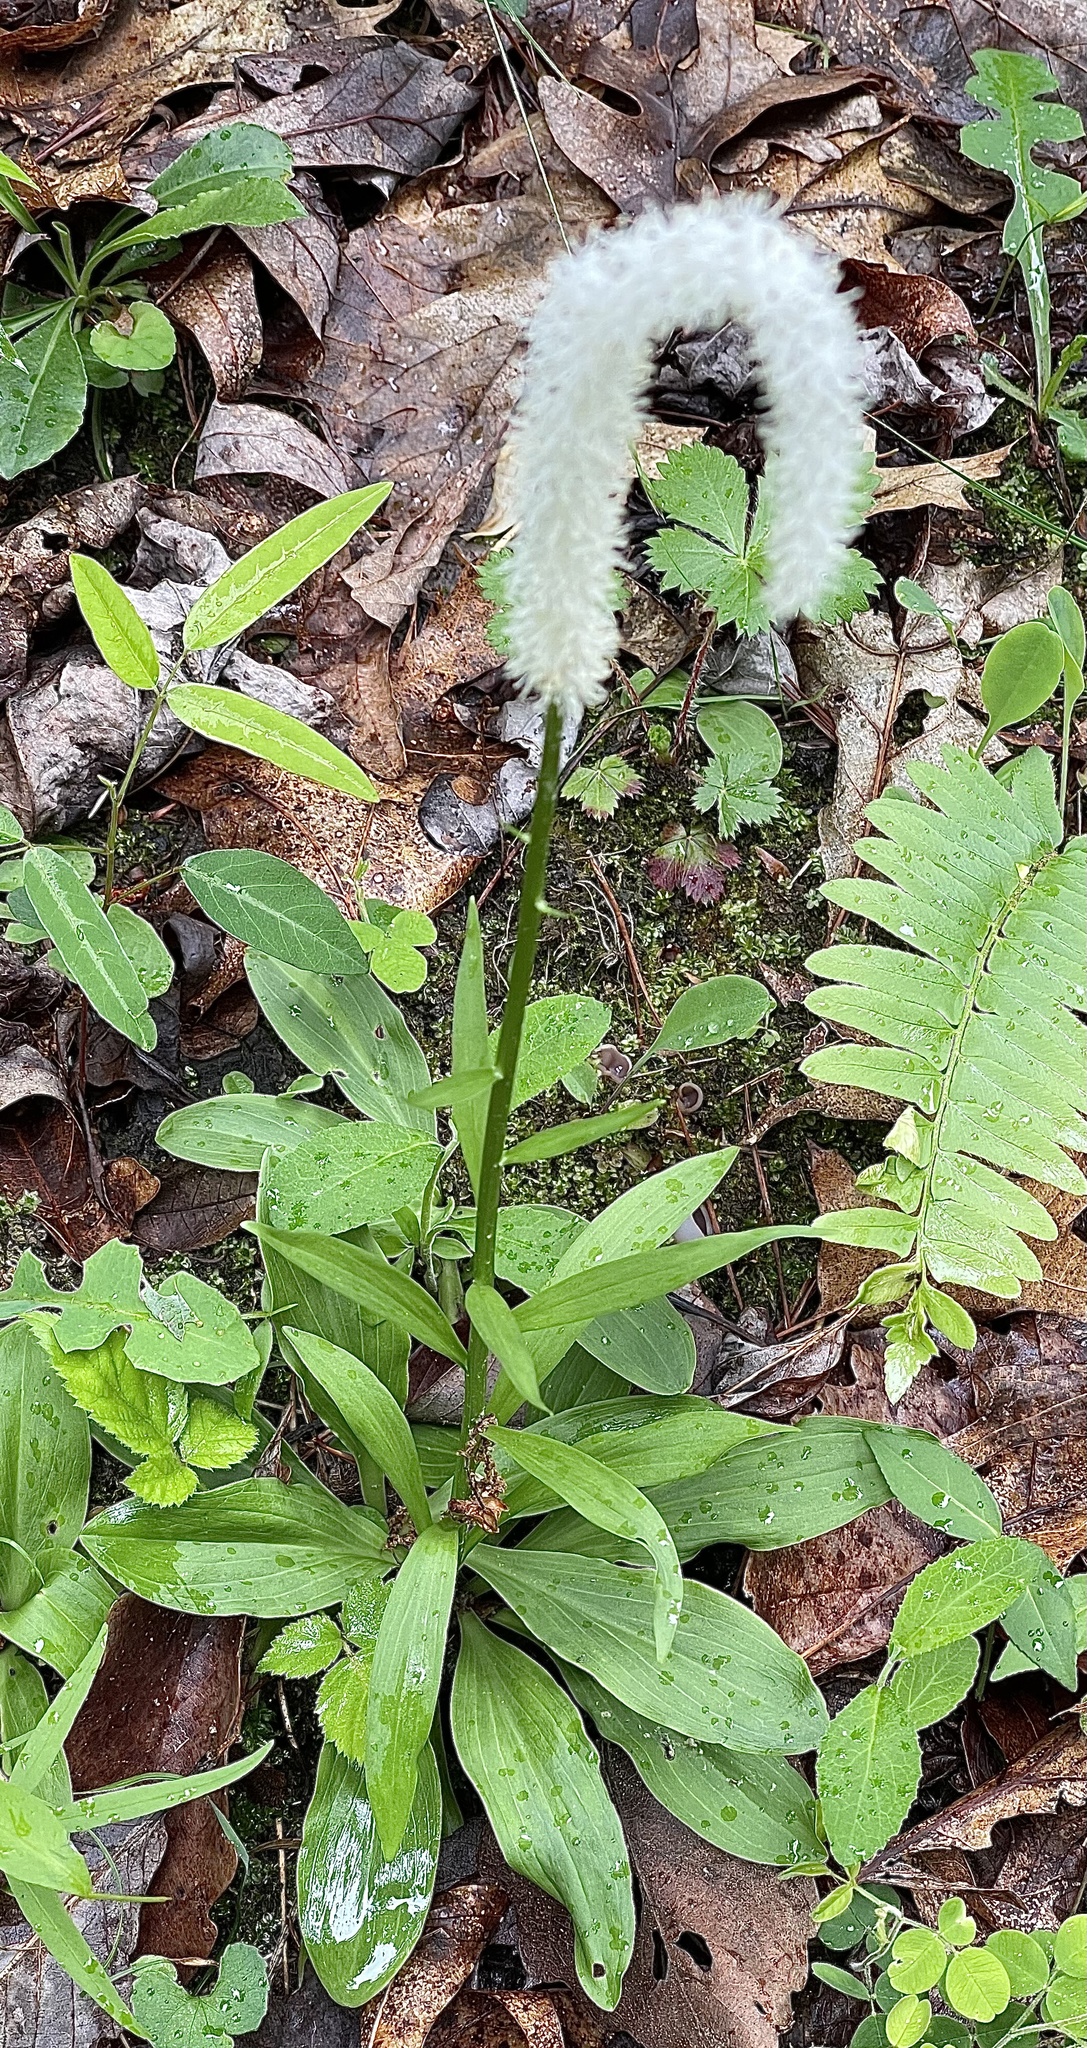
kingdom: Plantae
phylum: Tracheophyta
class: Liliopsida
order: Liliales
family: Melanthiaceae
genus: Chamaelirium
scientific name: Chamaelirium luteum
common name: Fairy-wand
